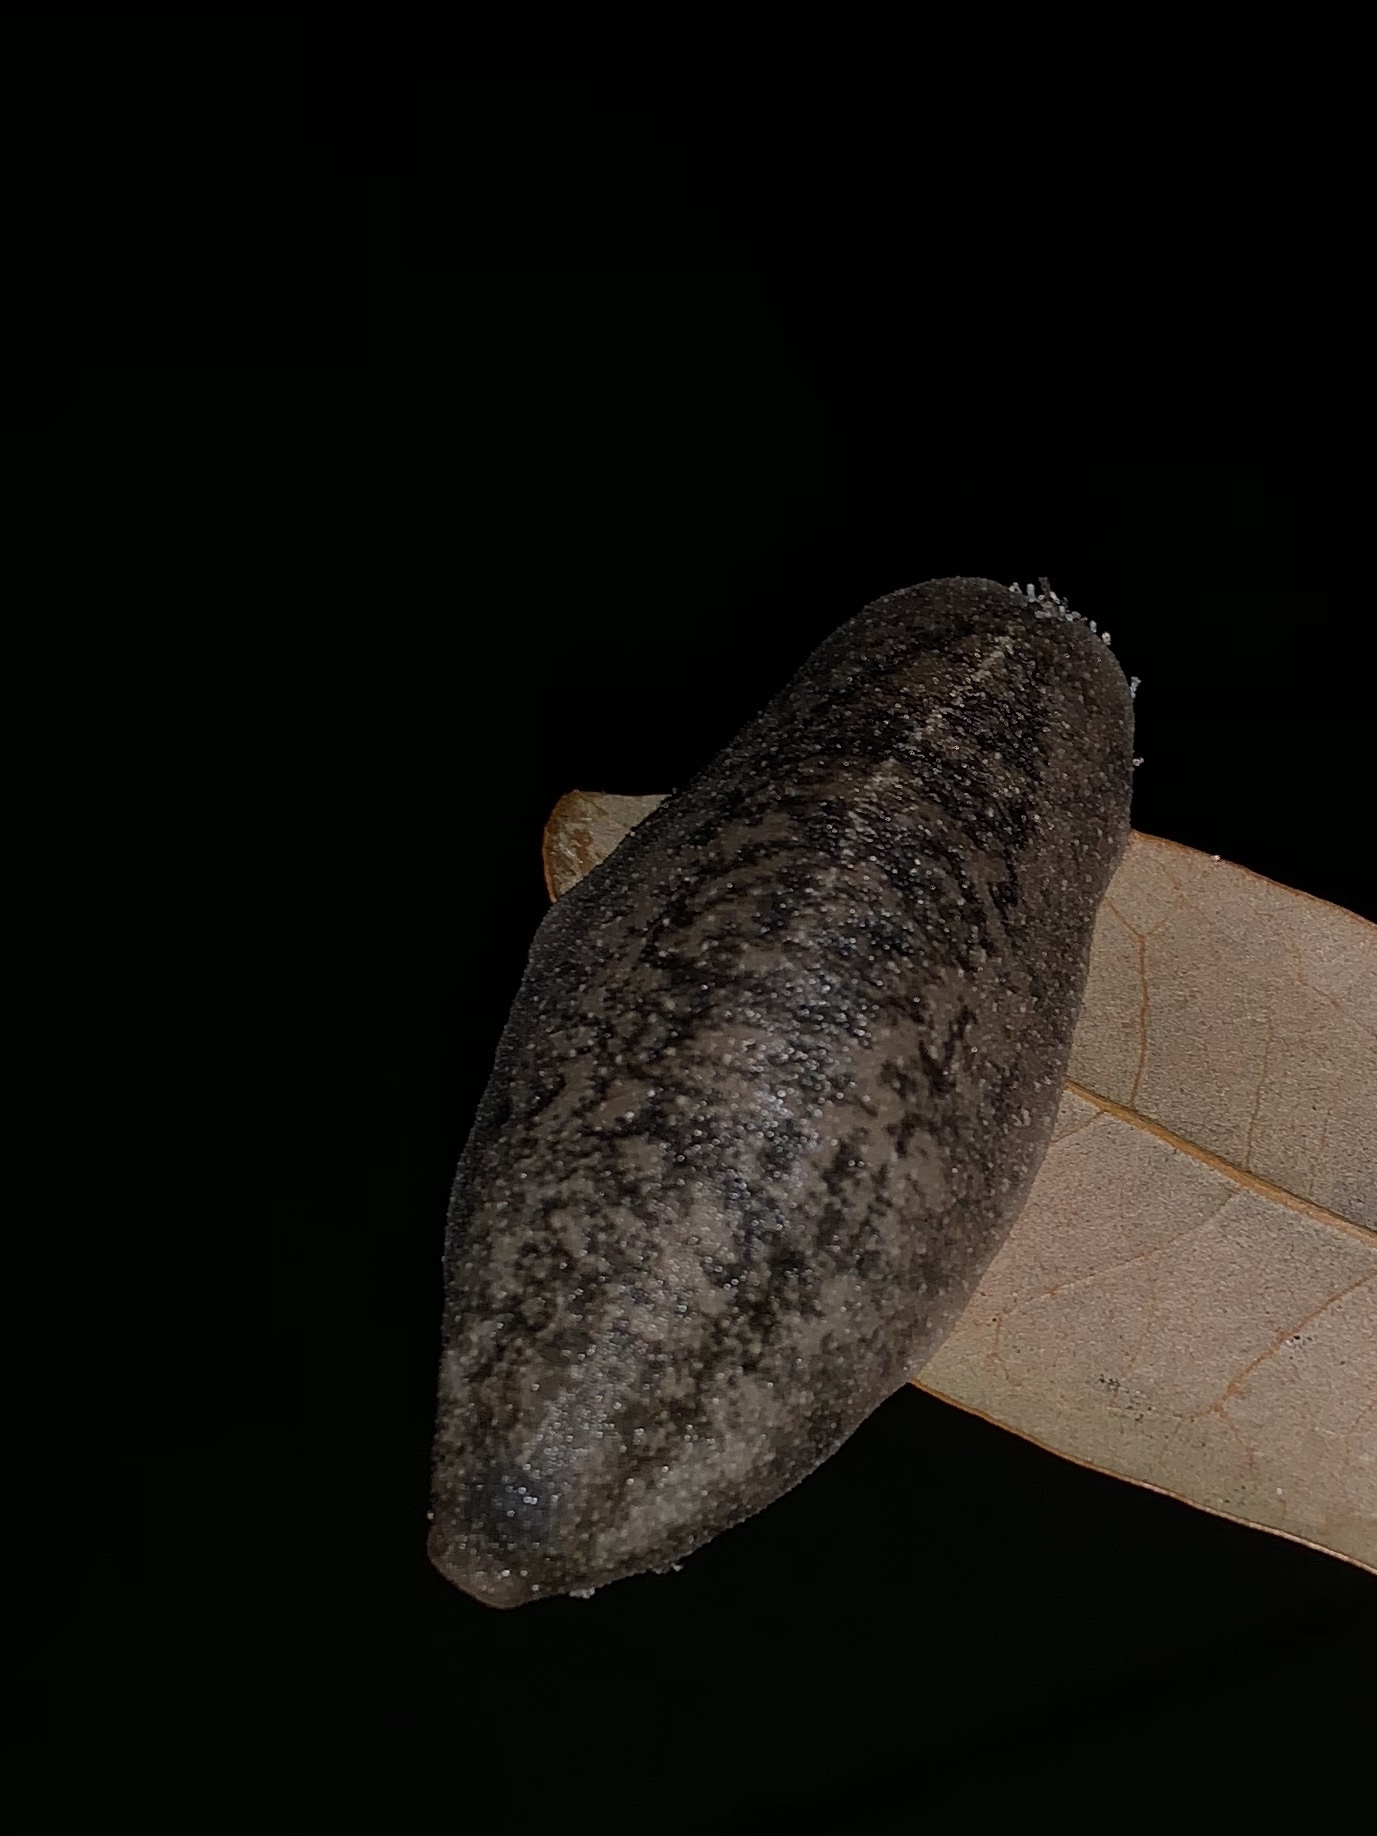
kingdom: Animalia
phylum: Mollusca
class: Gastropoda
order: Systellommatophora
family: Veronicellidae
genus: Leidyula
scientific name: Leidyula floridana
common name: Florida leatherleaf
